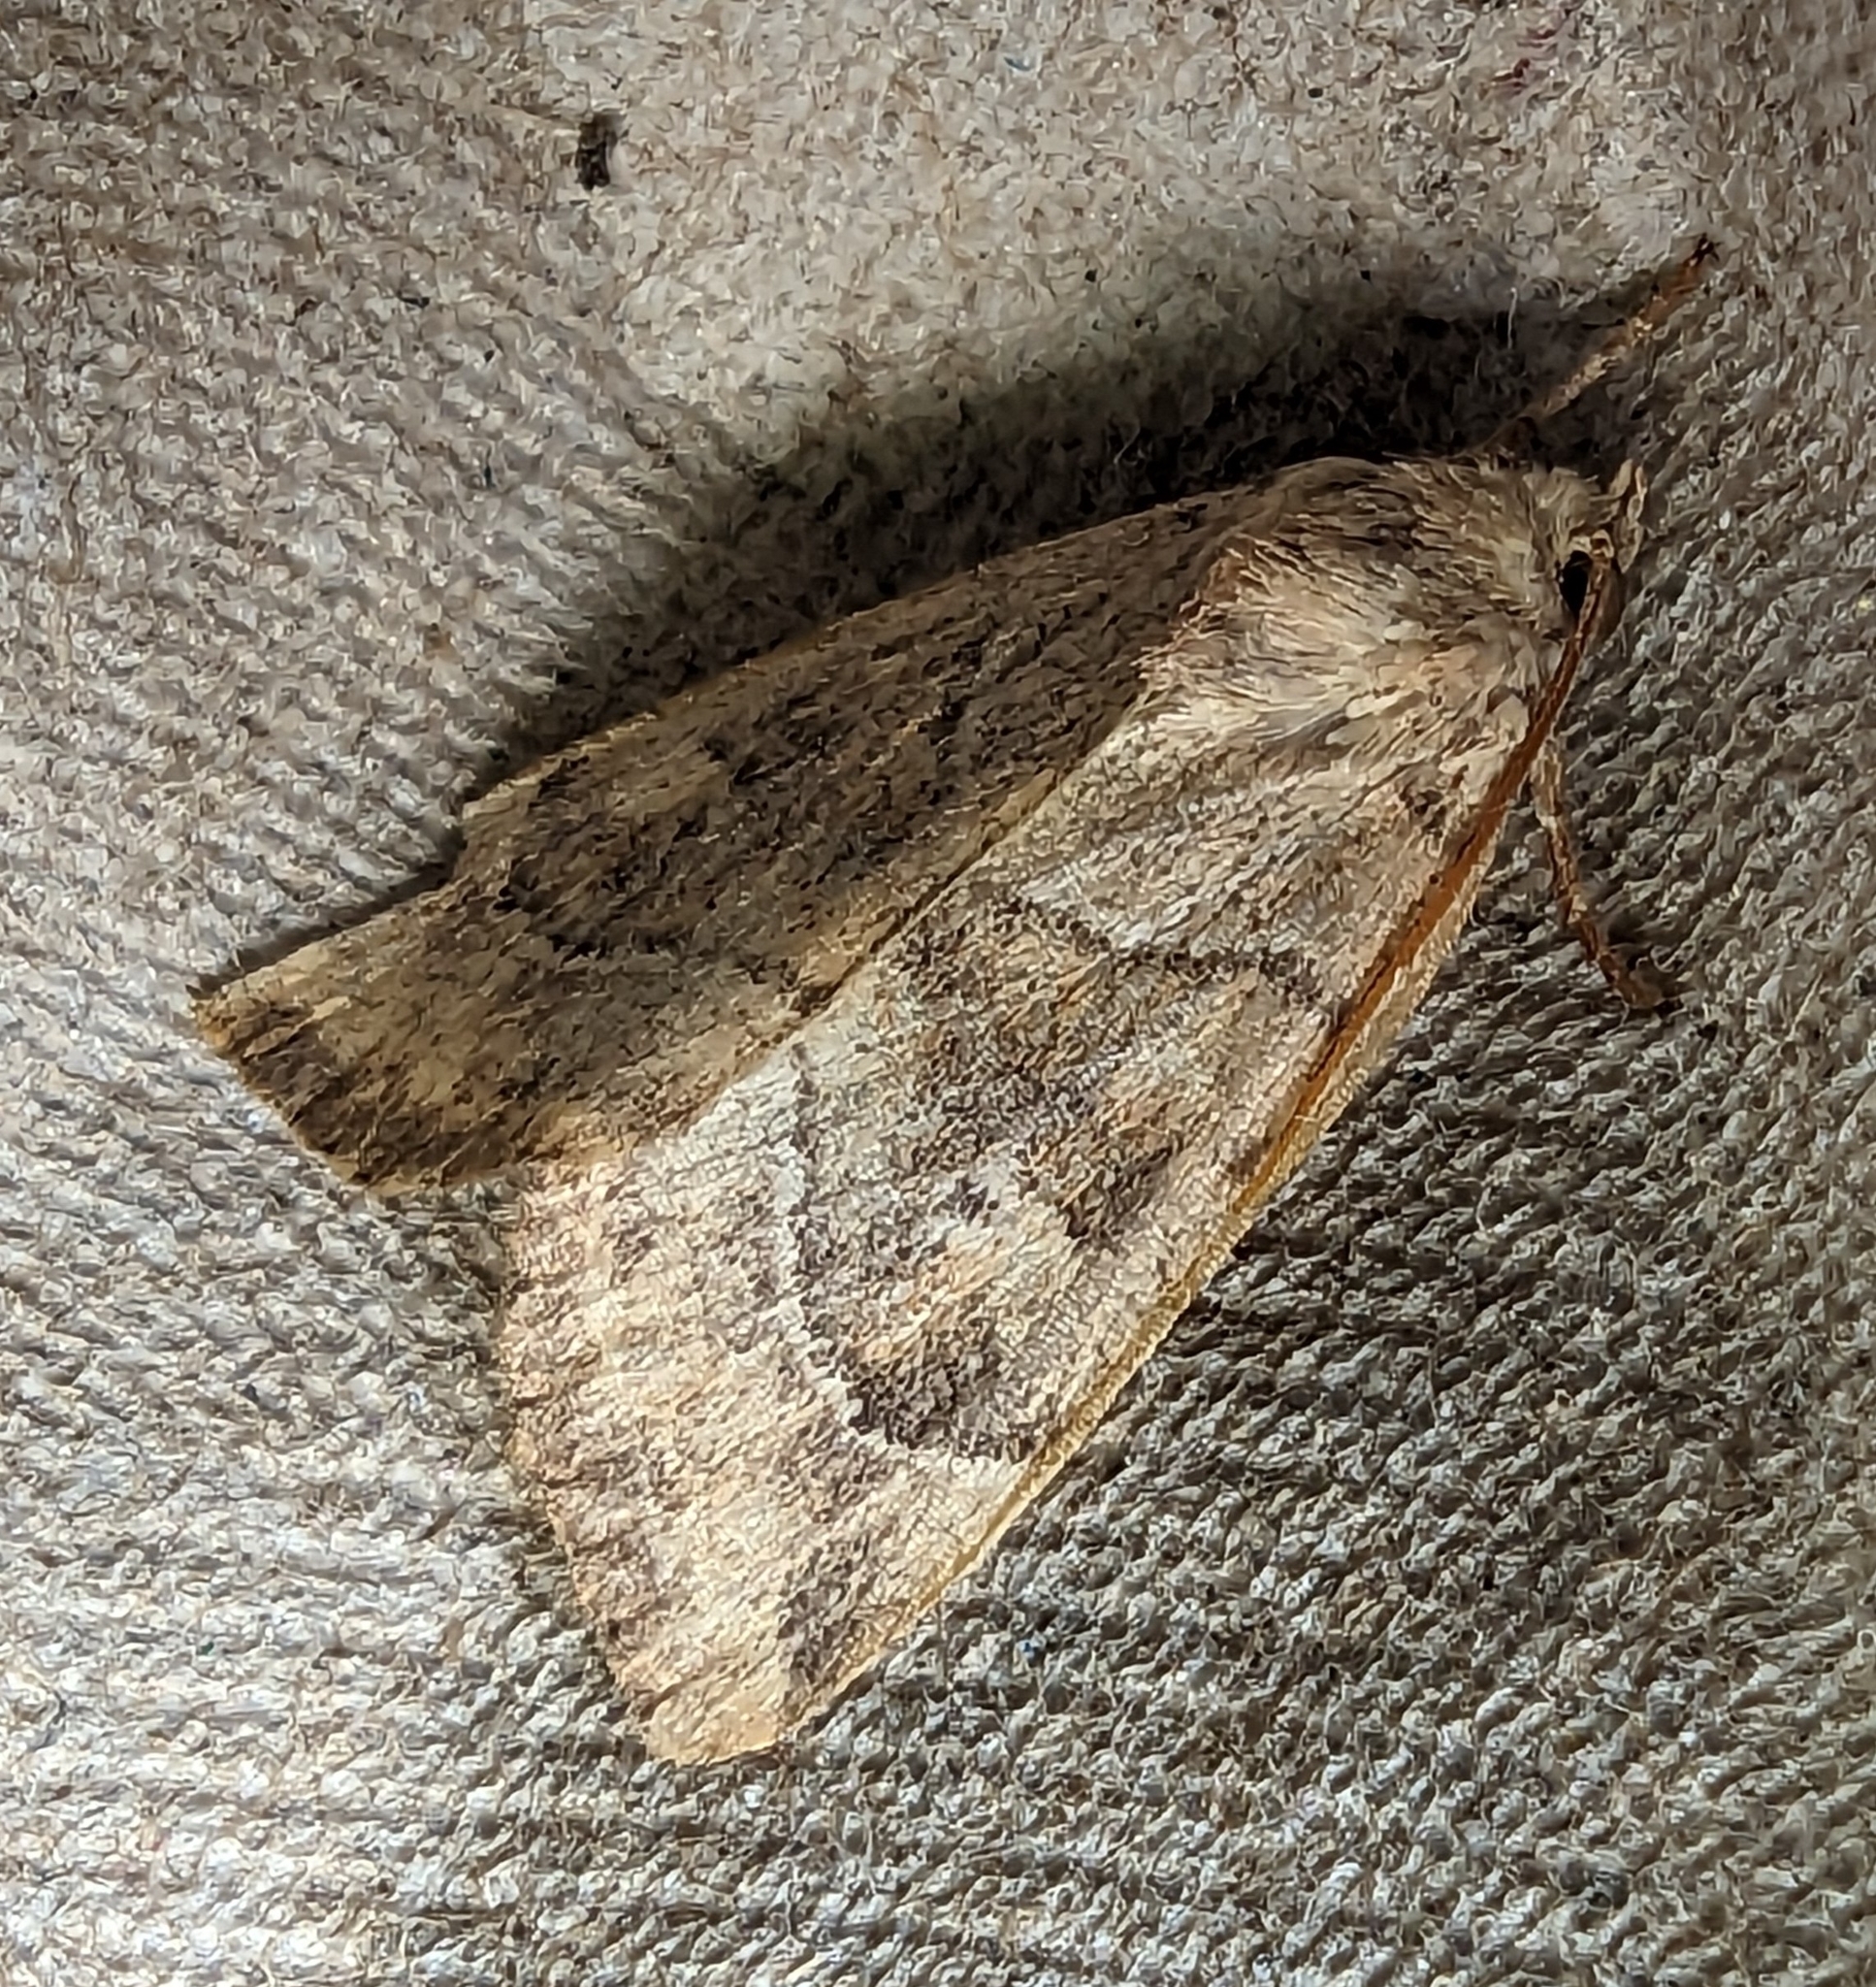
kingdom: Animalia
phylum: Arthropoda
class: Insecta
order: Lepidoptera
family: Noctuidae
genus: Cosmia
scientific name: Cosmia trapezina
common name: Dun-bar
